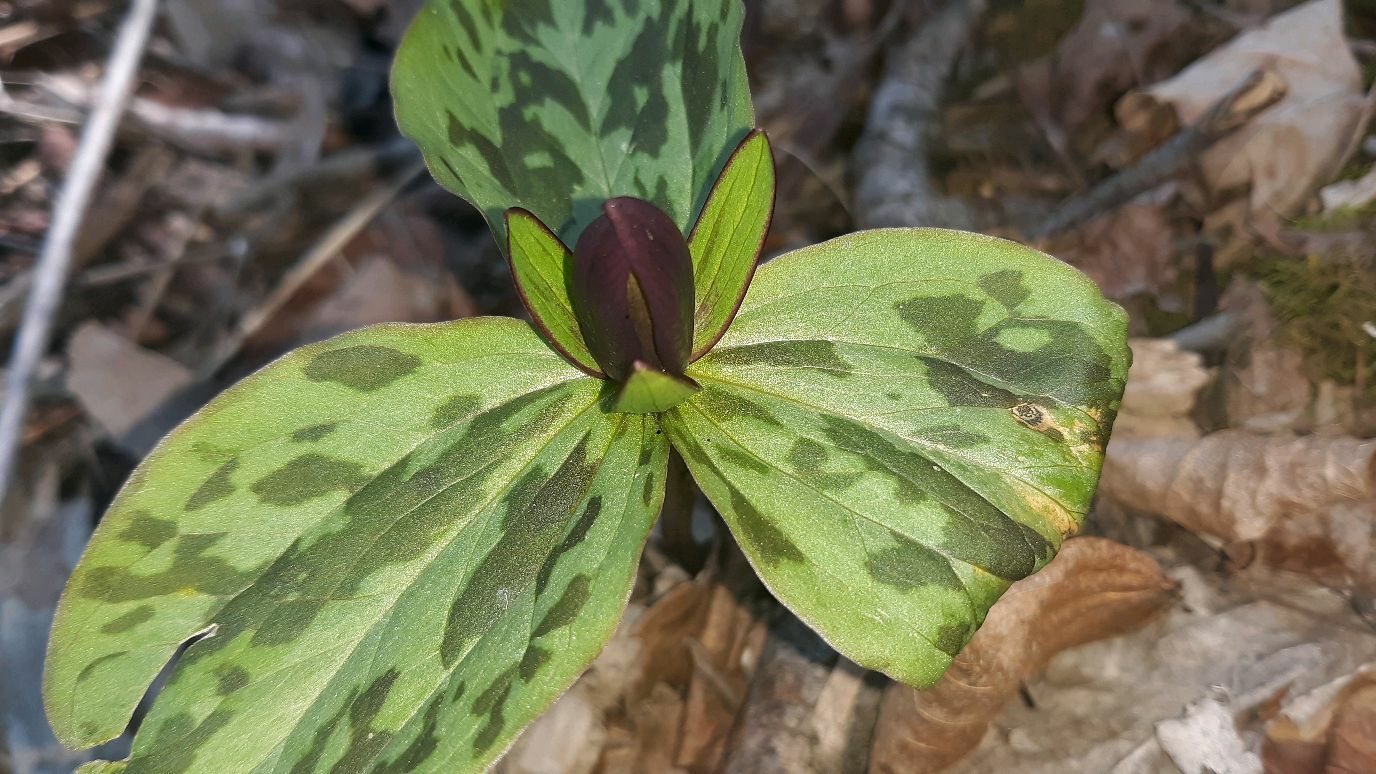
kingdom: Plantae
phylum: Tracheophyta
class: Liliopsida
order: Liliales
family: Melanthiaceae
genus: Trillium
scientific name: Trillium sessile
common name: Sessile trillium
